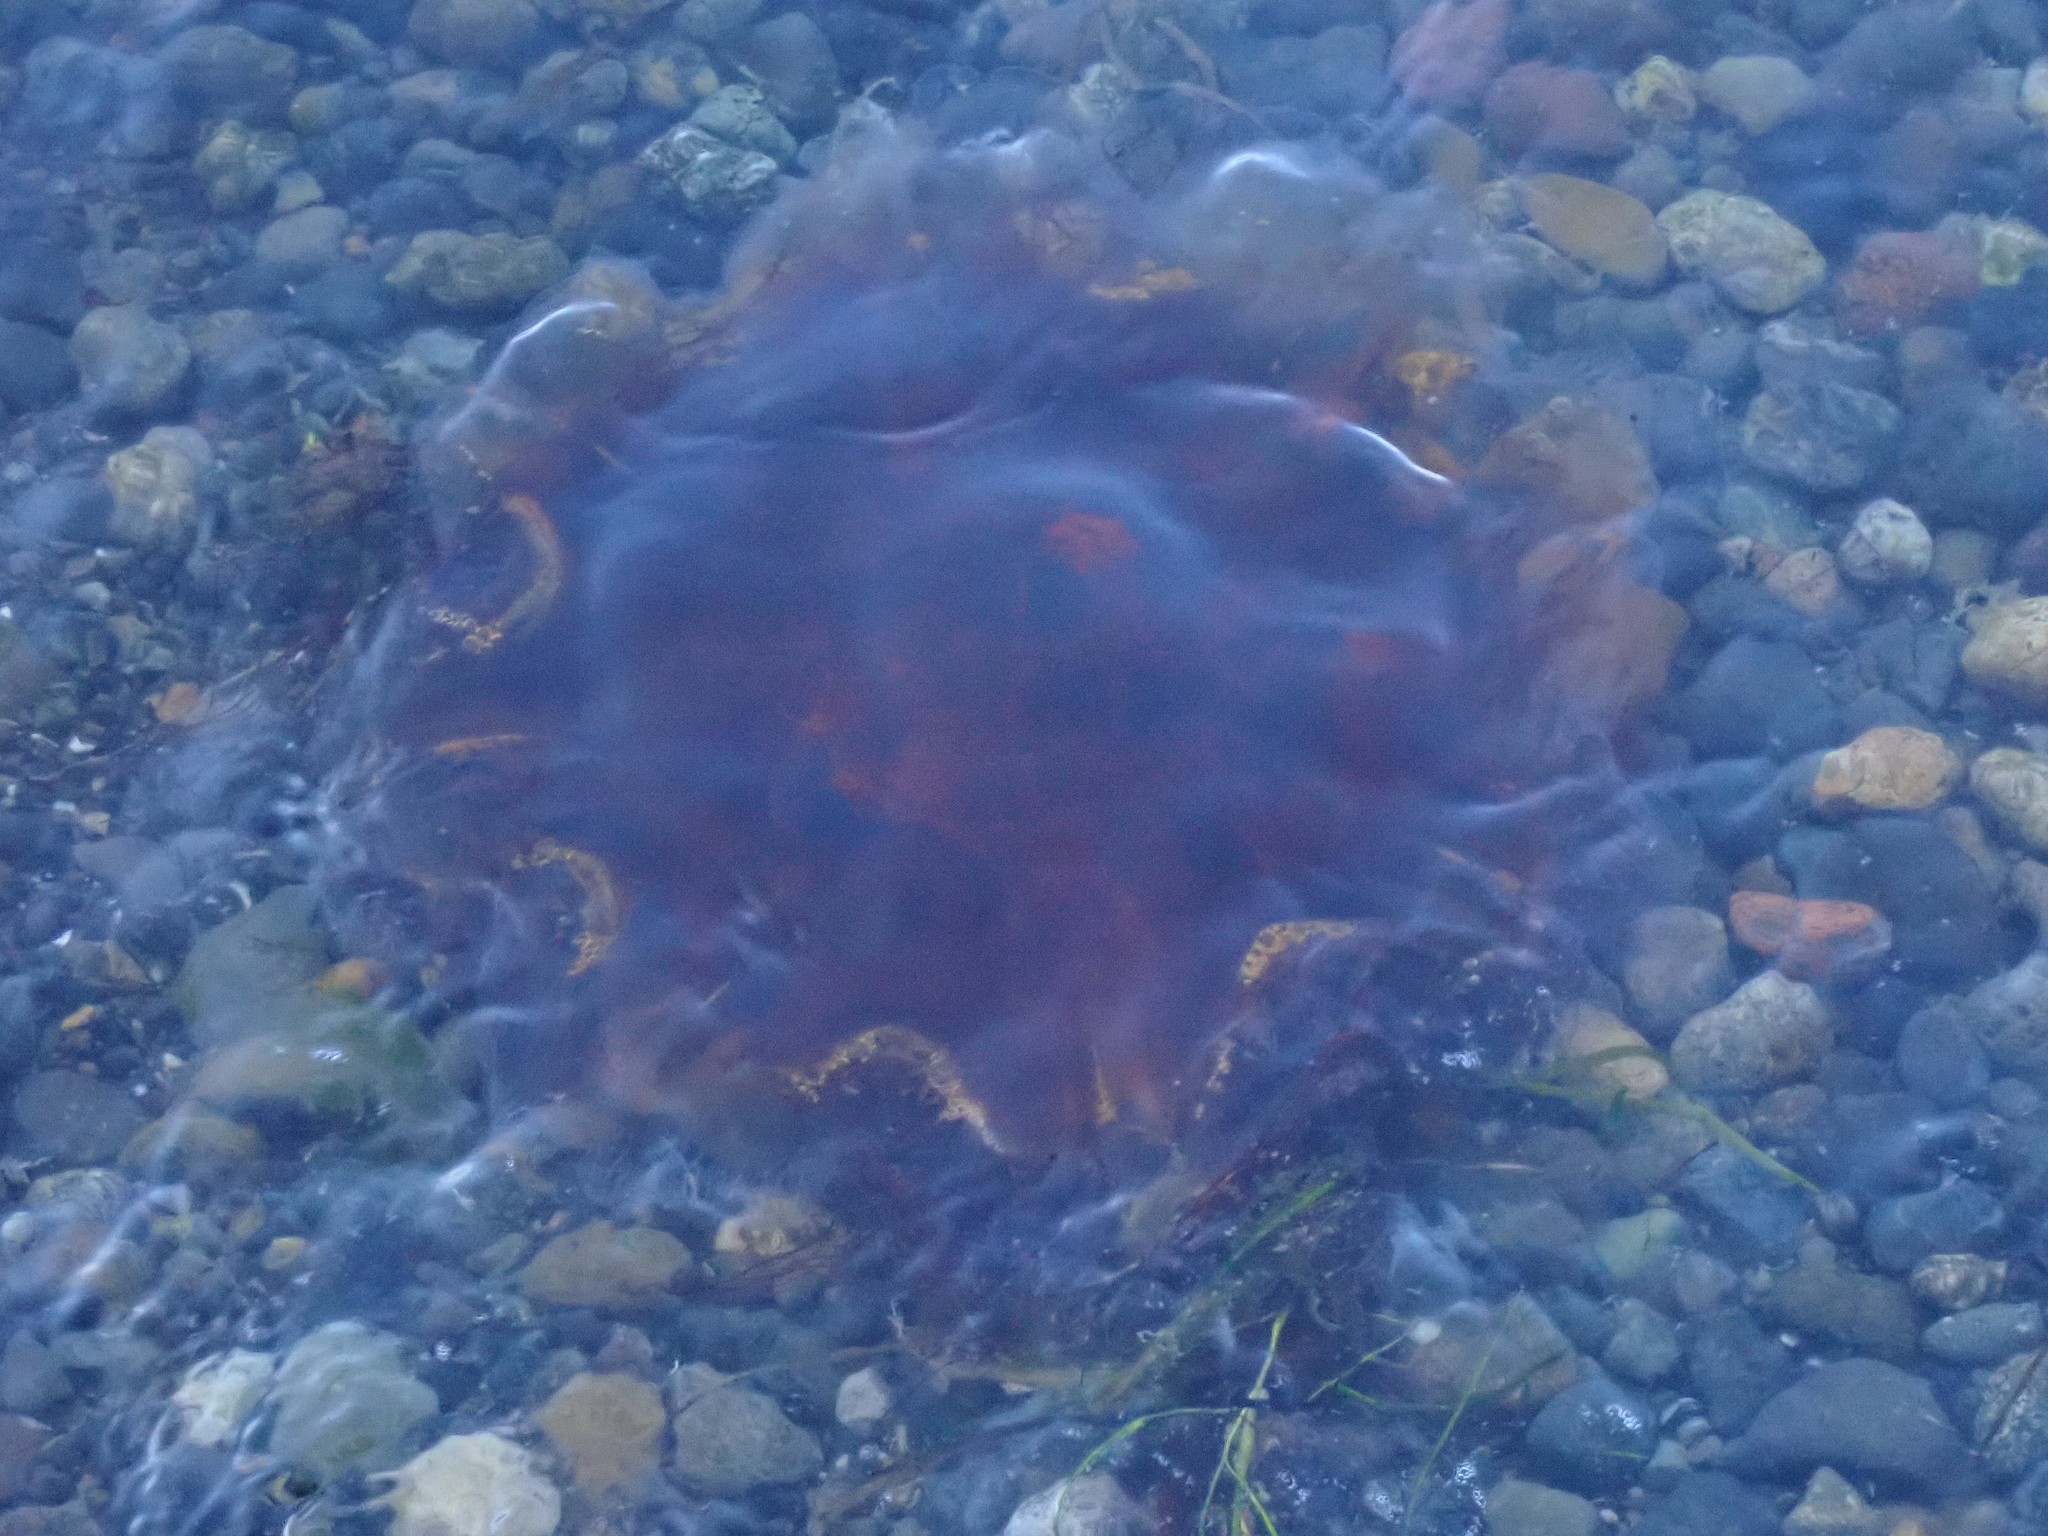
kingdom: Animalia
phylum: Cnidaria
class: Scyphozoa
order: Semaeostomeae
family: Cyaneidae
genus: Cyanea
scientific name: Cyanea ferruginea
